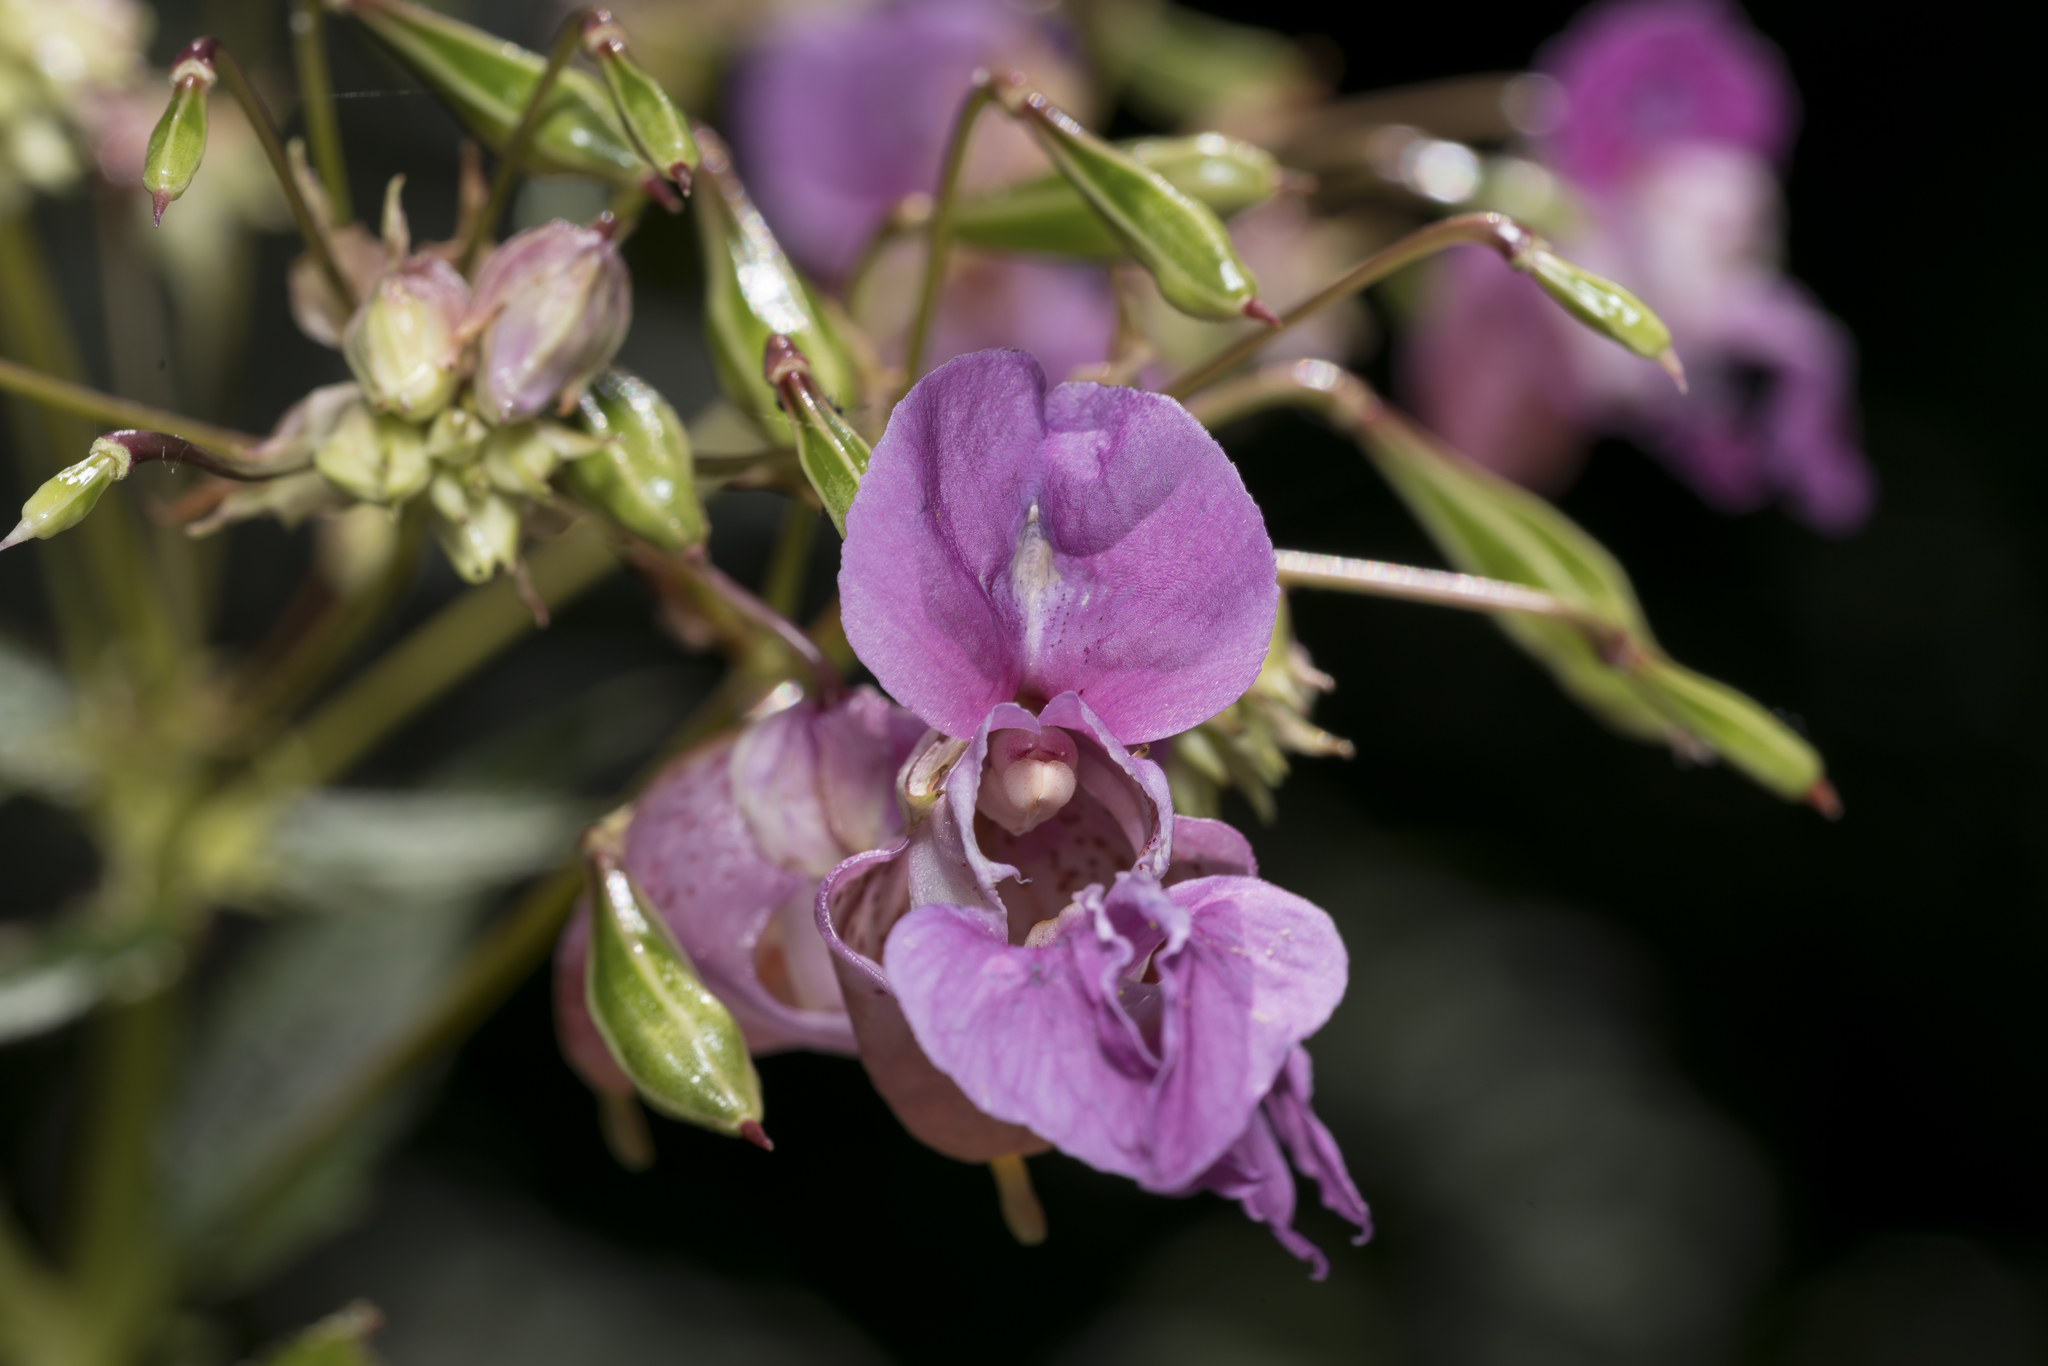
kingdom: Plantae
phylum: Tracheophyta
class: Magnoliopsida
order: Ericales
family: Balsaminaceae
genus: Impatiens
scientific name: Impatiens glandulifera
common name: Himalayan balsam
